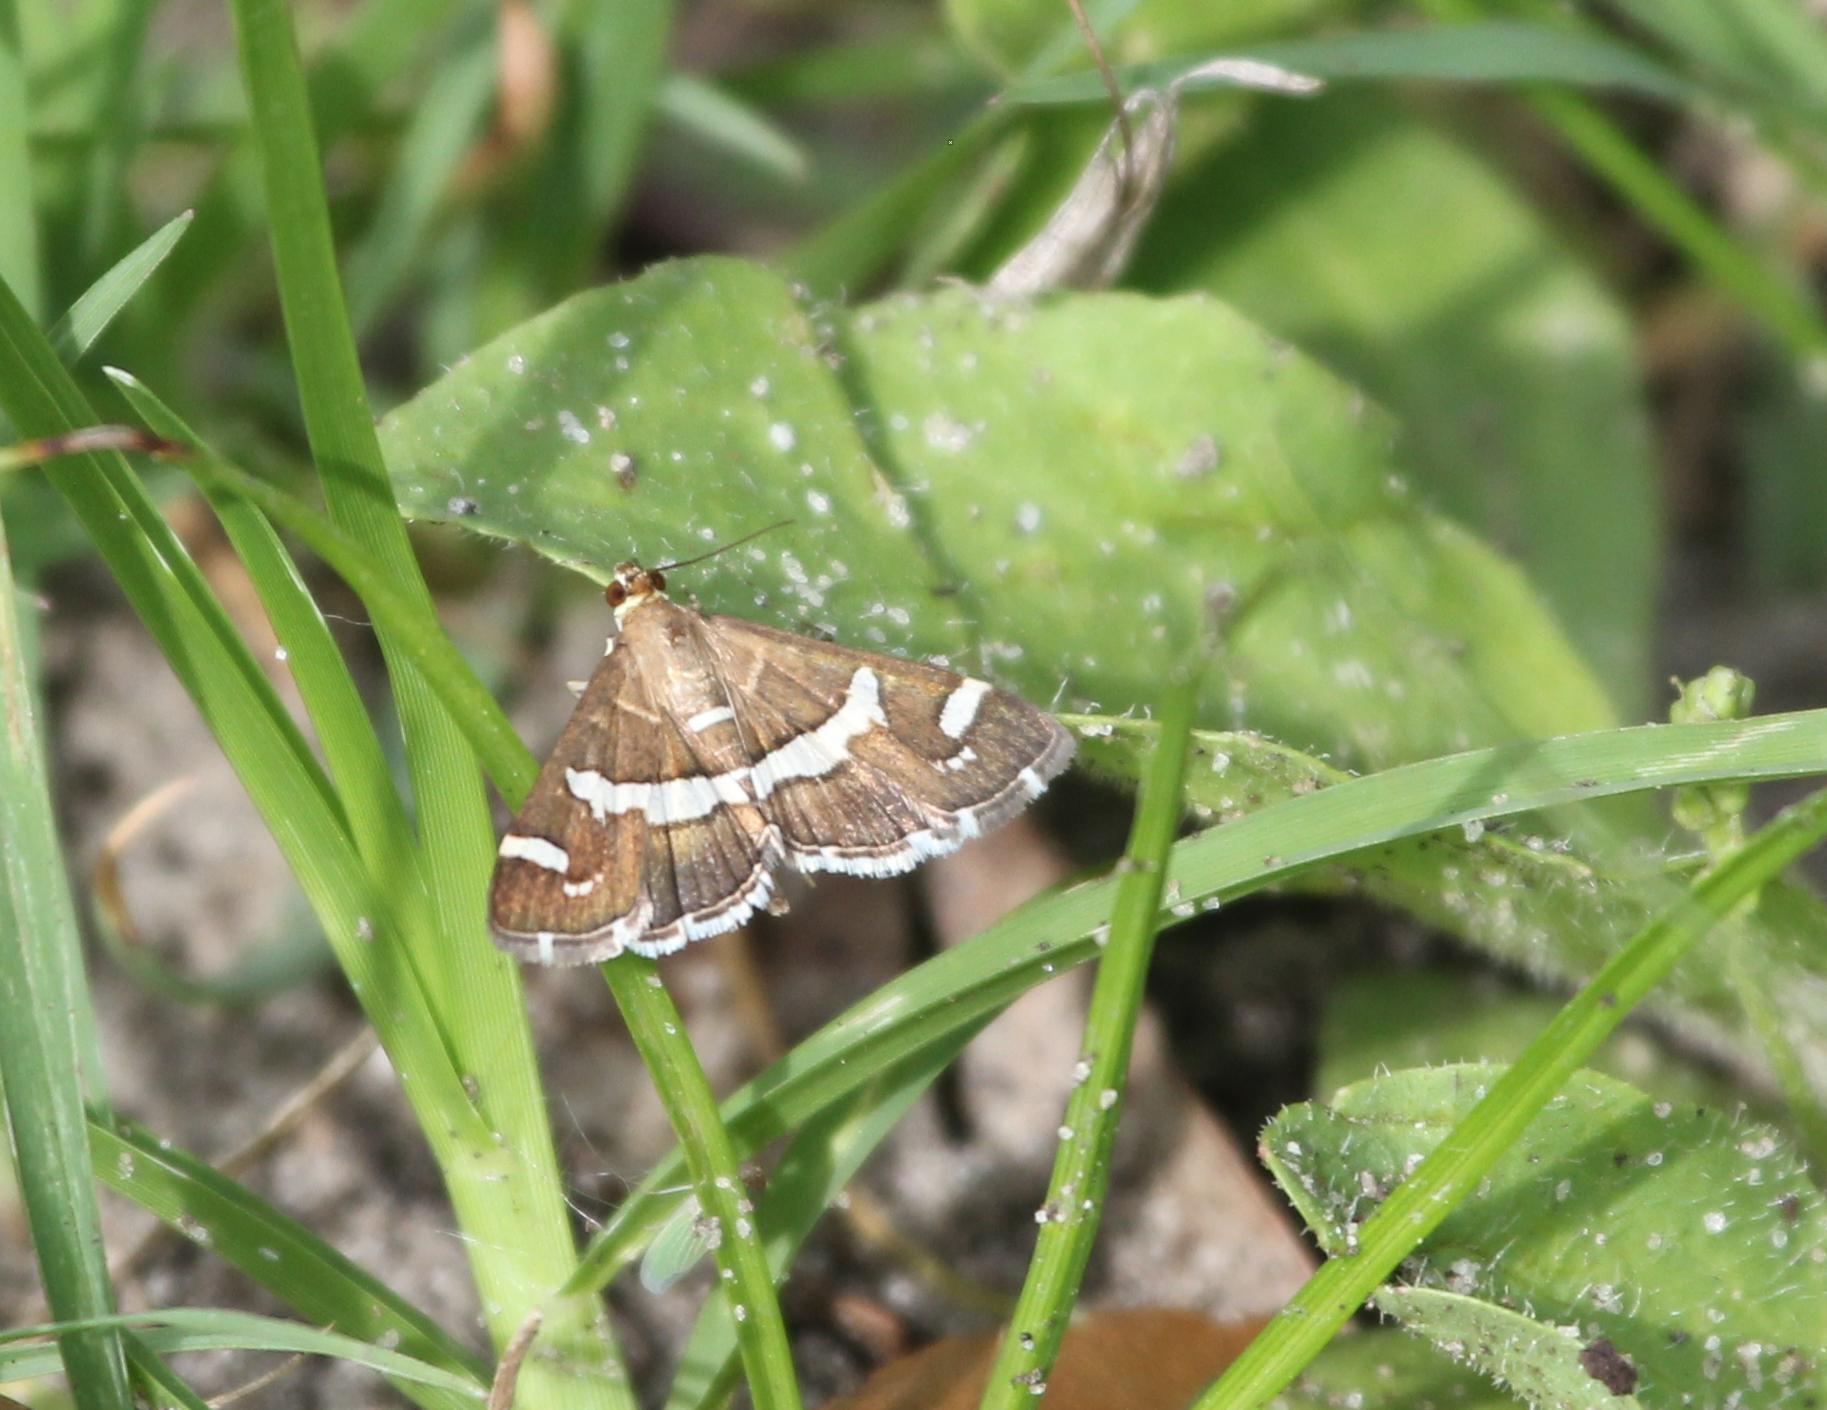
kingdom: Animalia
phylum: Arthropoda
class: Insecta
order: Lepidoptera
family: Crambidae
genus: Spoladea
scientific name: Spoladea recurvalis
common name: Beet webworm moth
